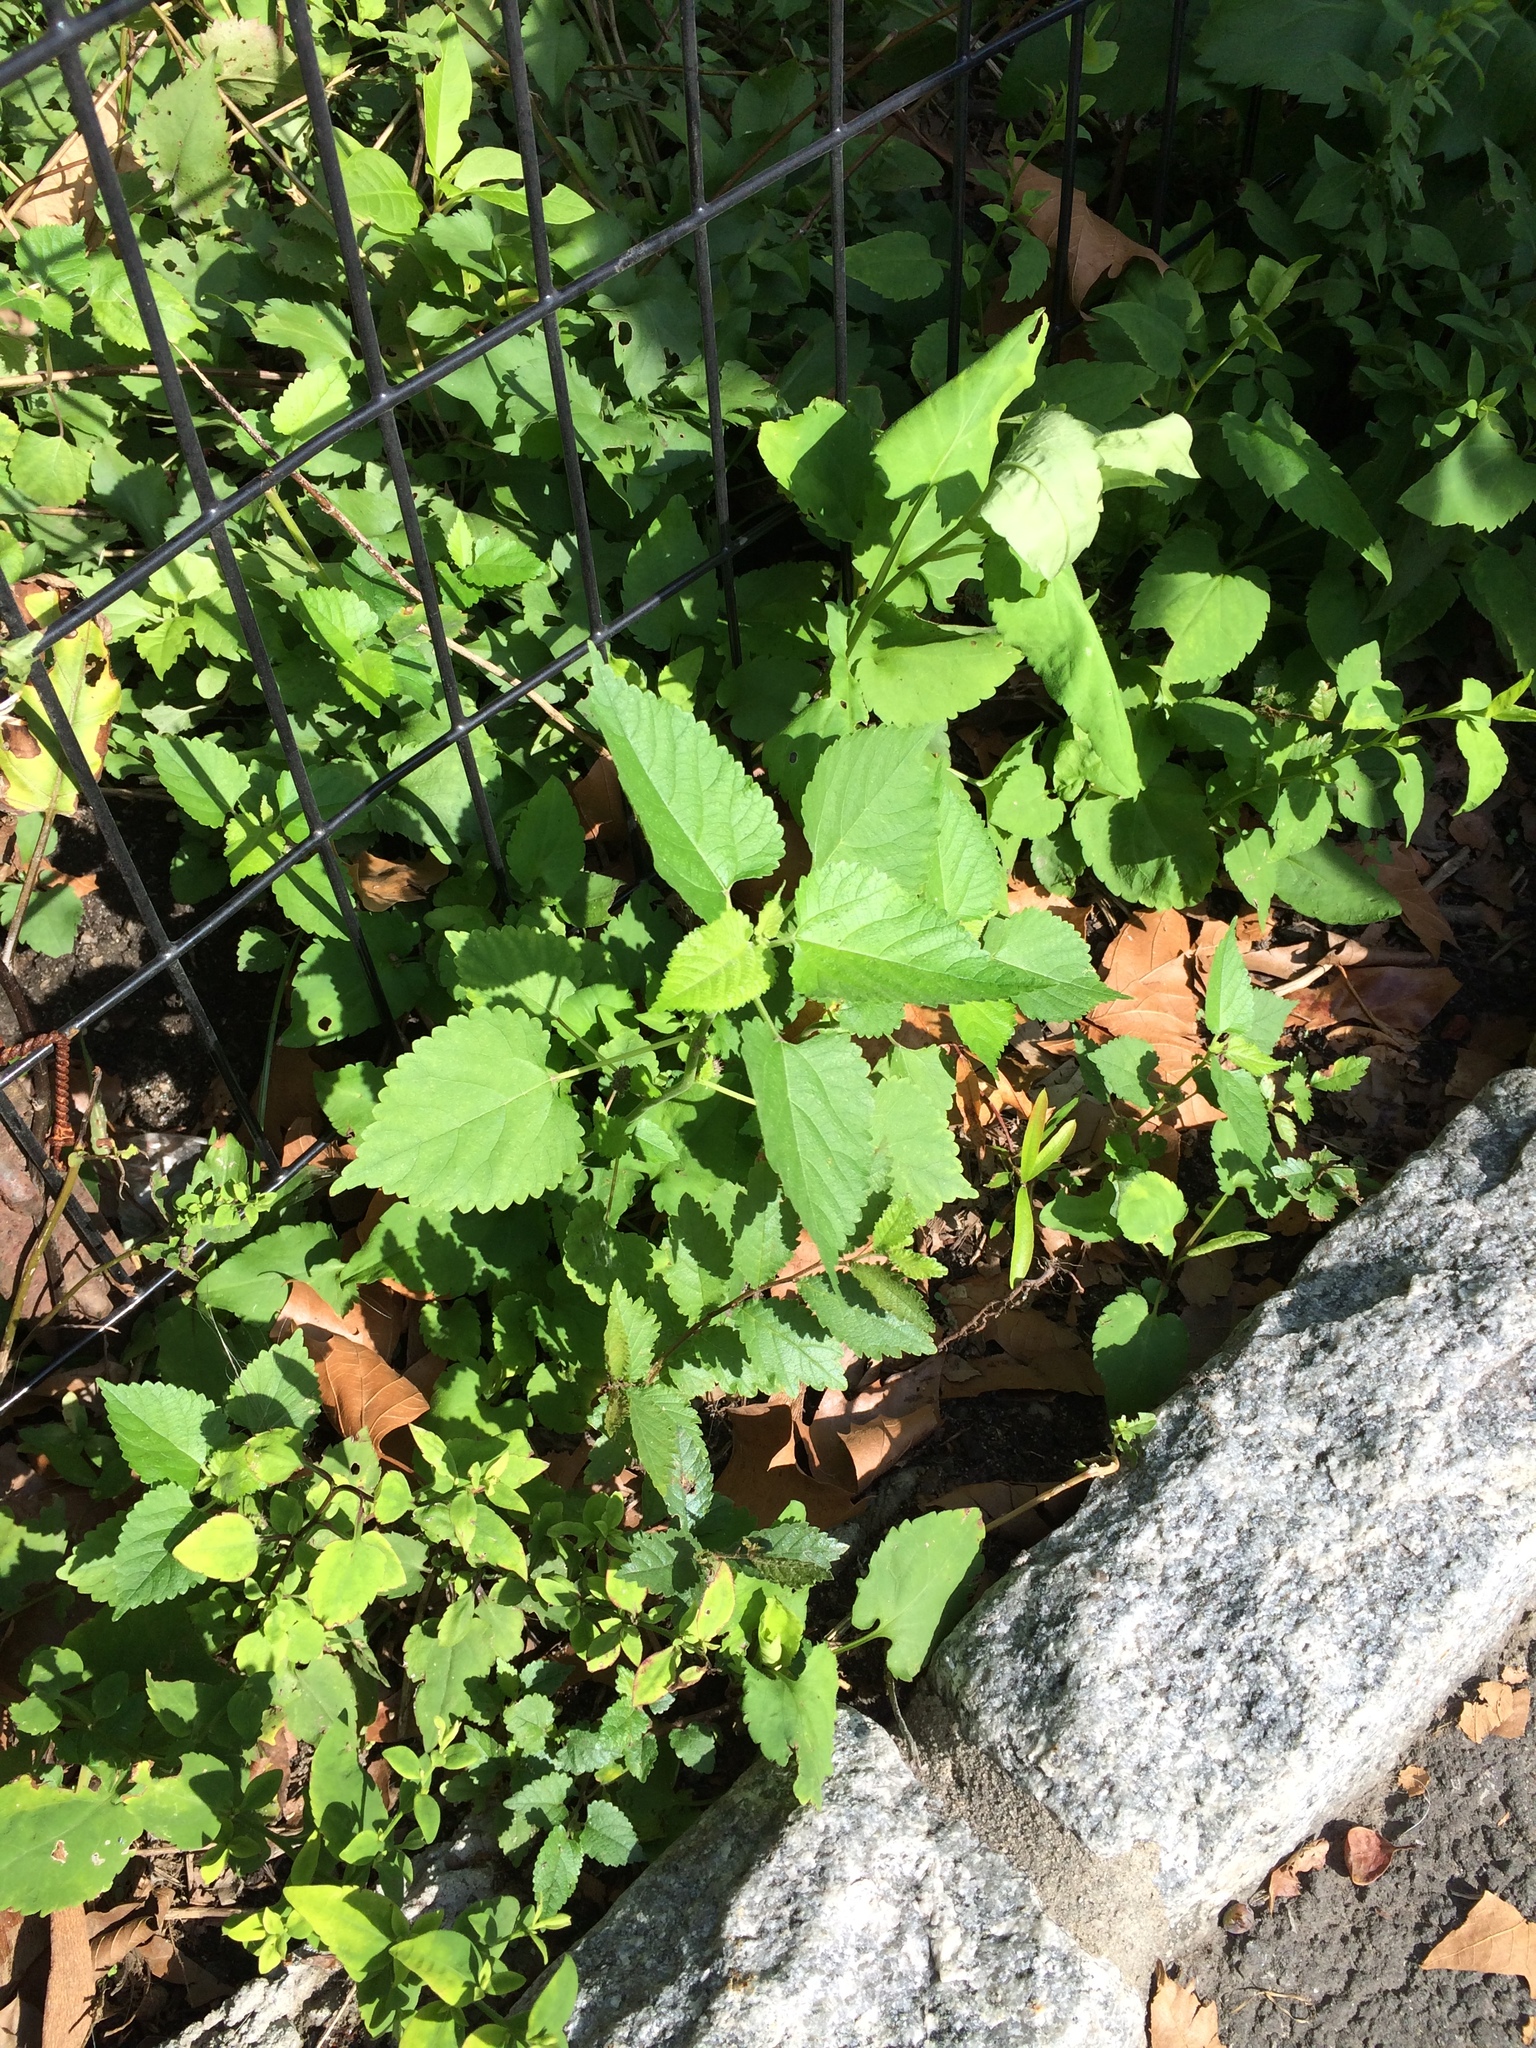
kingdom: Plantae
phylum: Tracheophyta
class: Magnoliopsida
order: Rosales
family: Moraceae
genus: Fatoua
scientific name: Fatoua villosa
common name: Hairy crabweed
